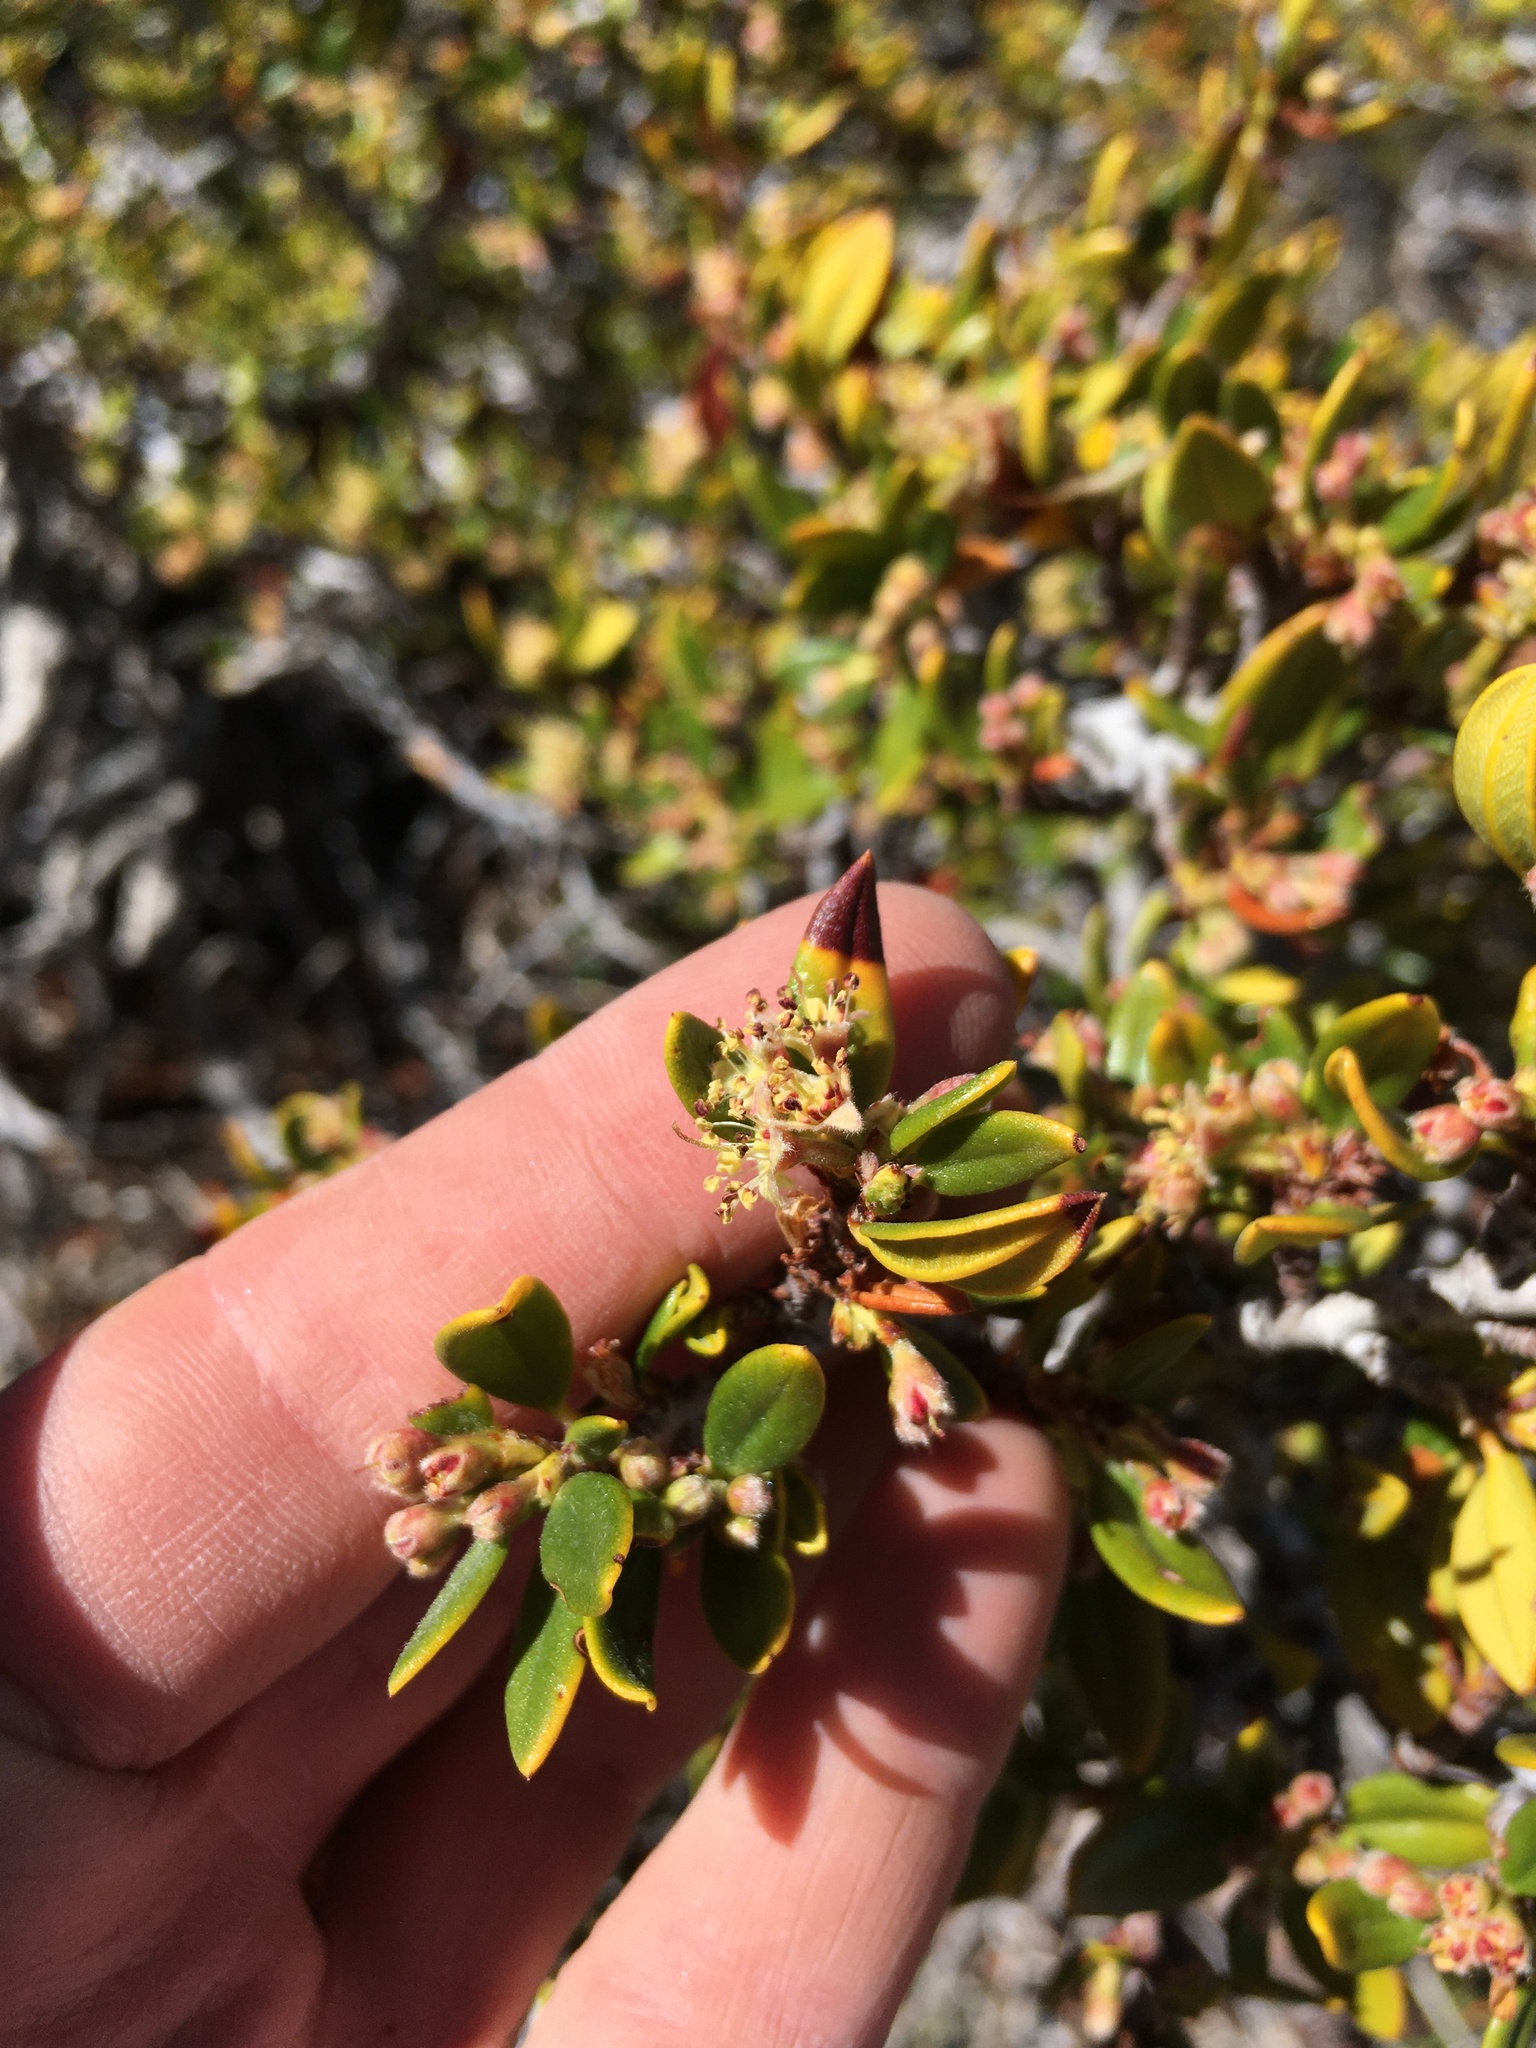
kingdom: Plantae
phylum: Tracheophyta
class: Magnoliopsida
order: Rosales
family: Rosaceae
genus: Cercocarpus
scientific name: Cercocarpus ledifolius
